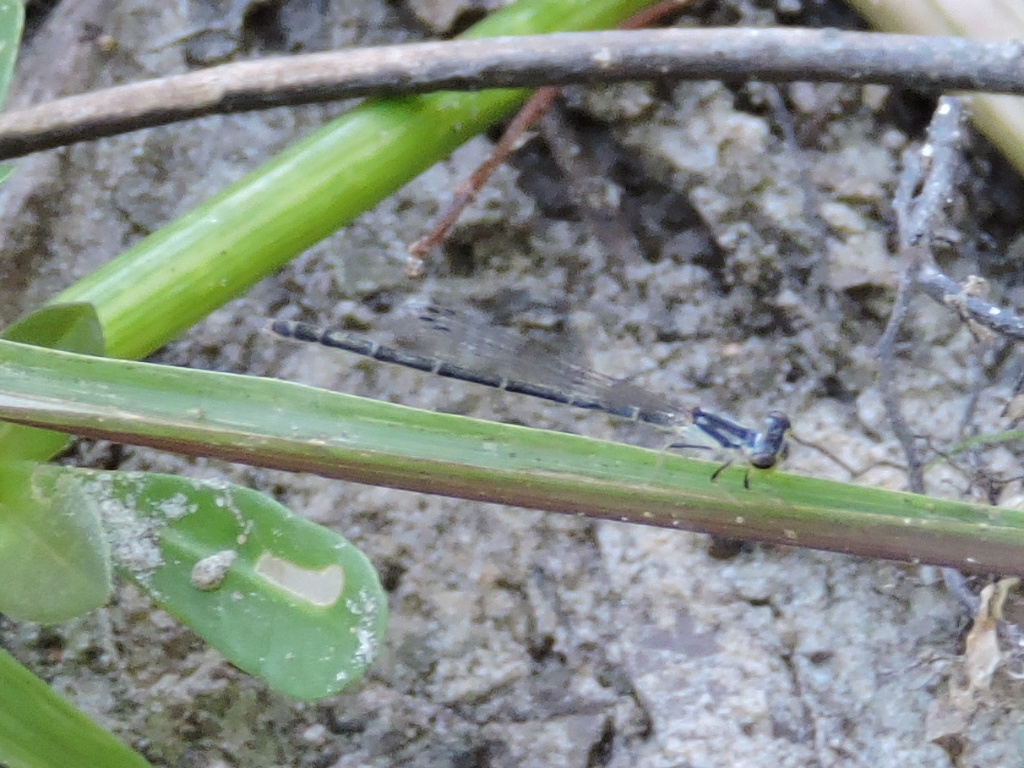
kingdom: Animalia
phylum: Arthropoda
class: Insecta
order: Odonata
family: Coenagrionidae
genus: Ischnura
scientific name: Ischnura posita
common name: Fragile forktail
